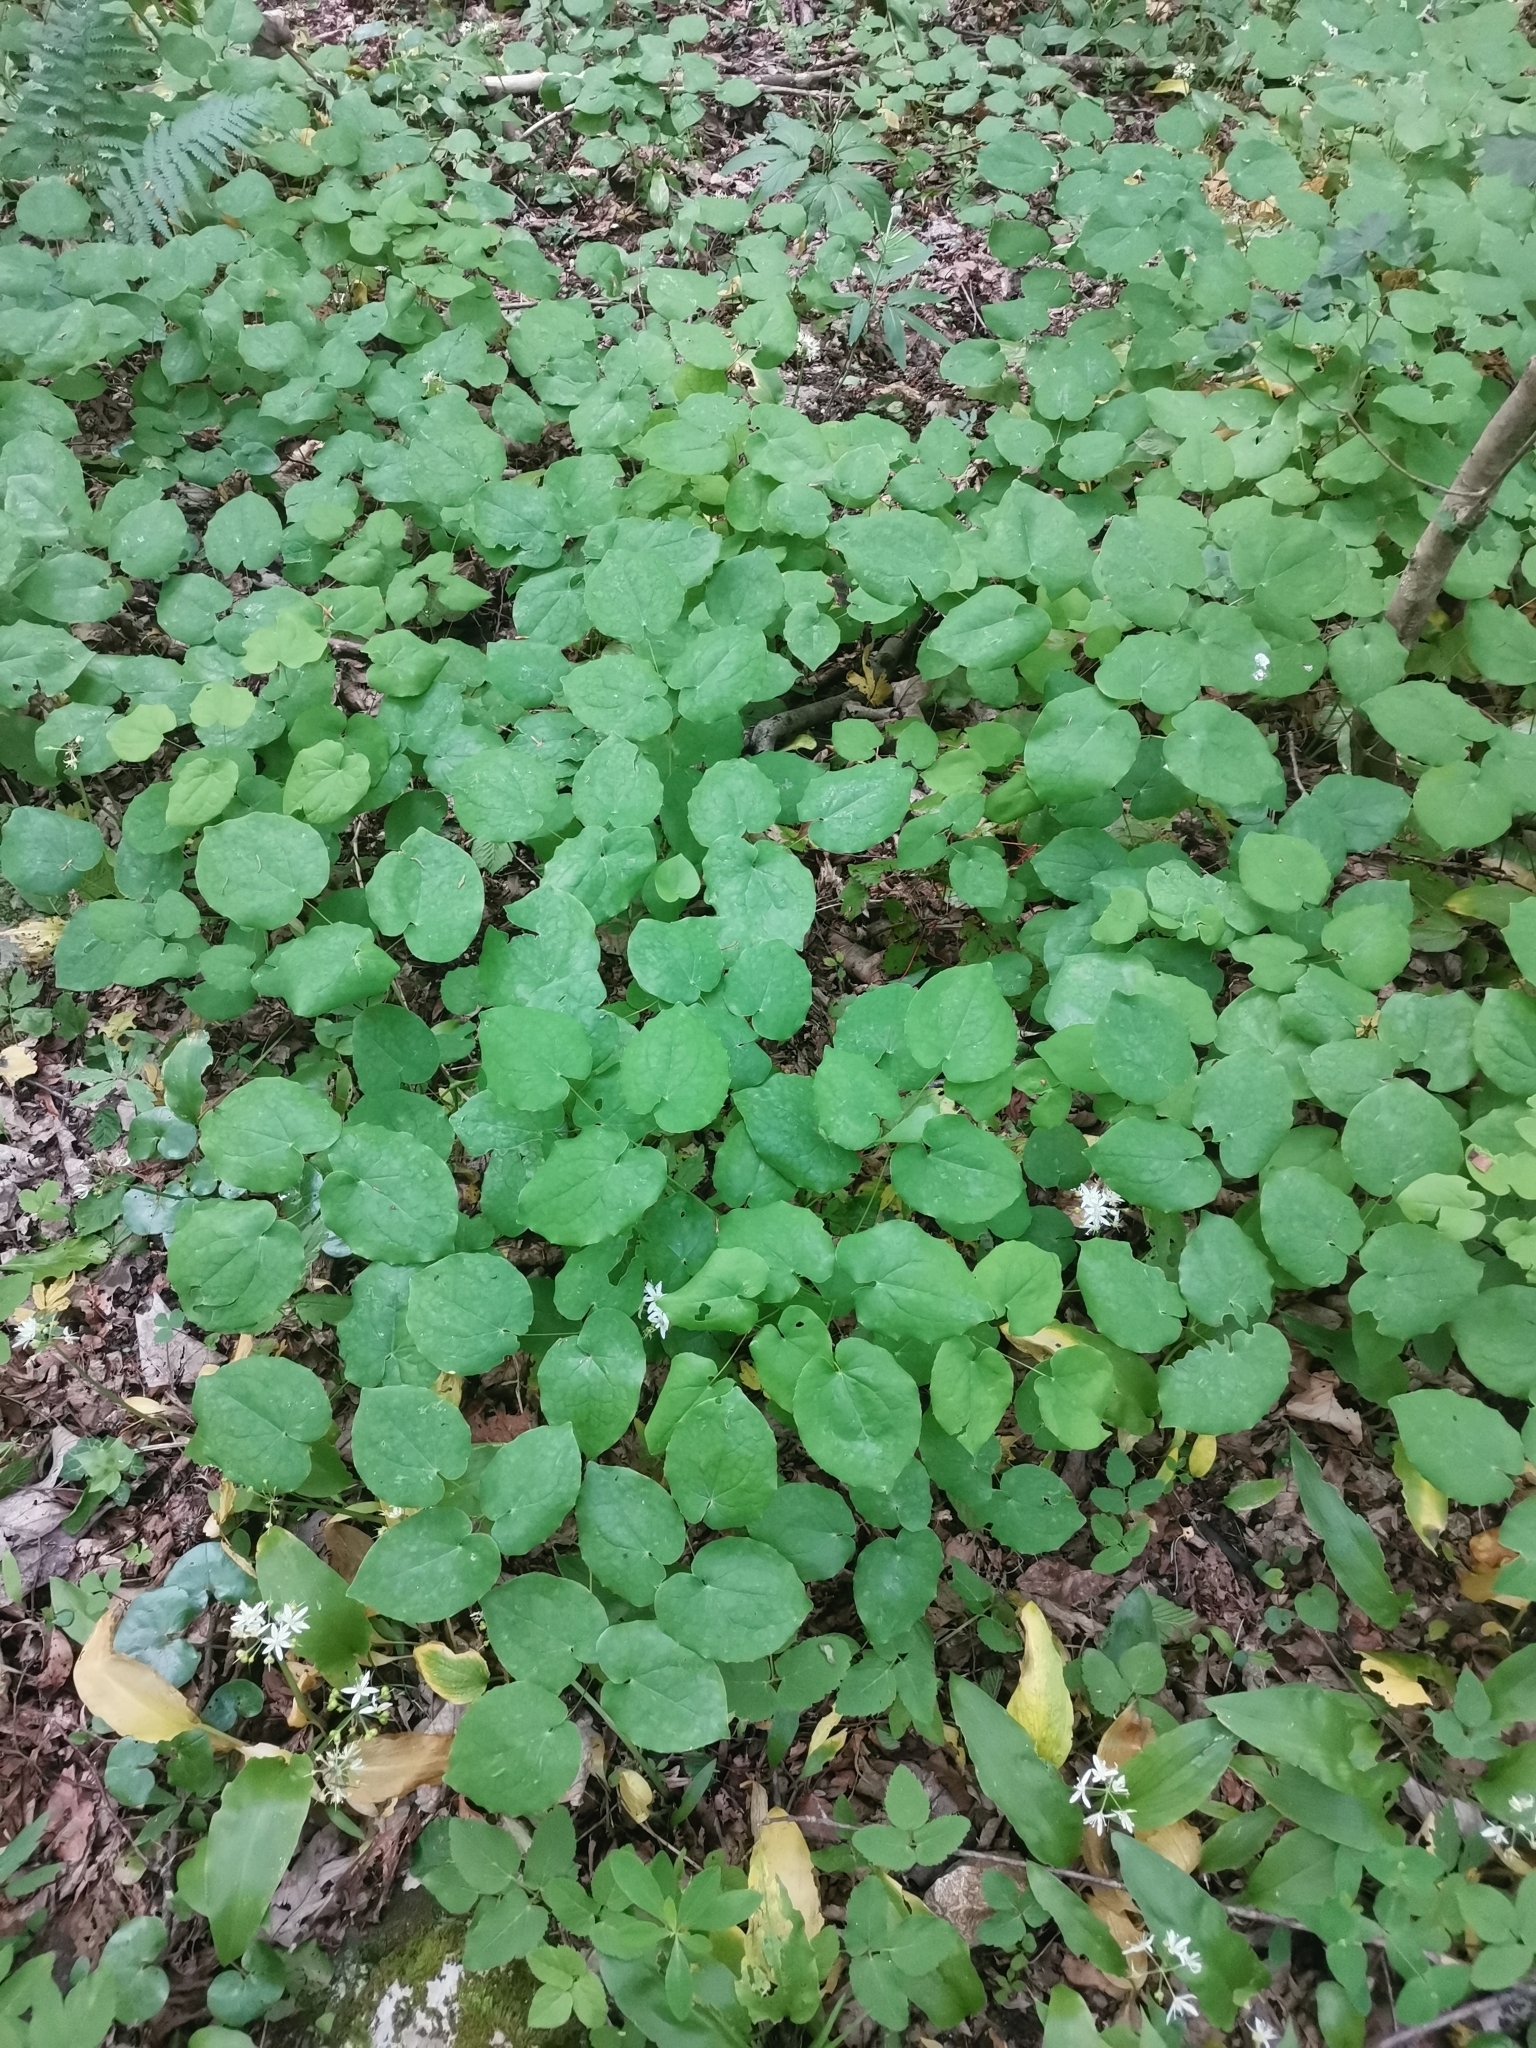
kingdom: Plantae
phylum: Tracheophyta
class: Magnoliopsida
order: Ranunculales
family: Berberidaceae
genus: Epimedium
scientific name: Epimedium alpinum
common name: Barrenwort
